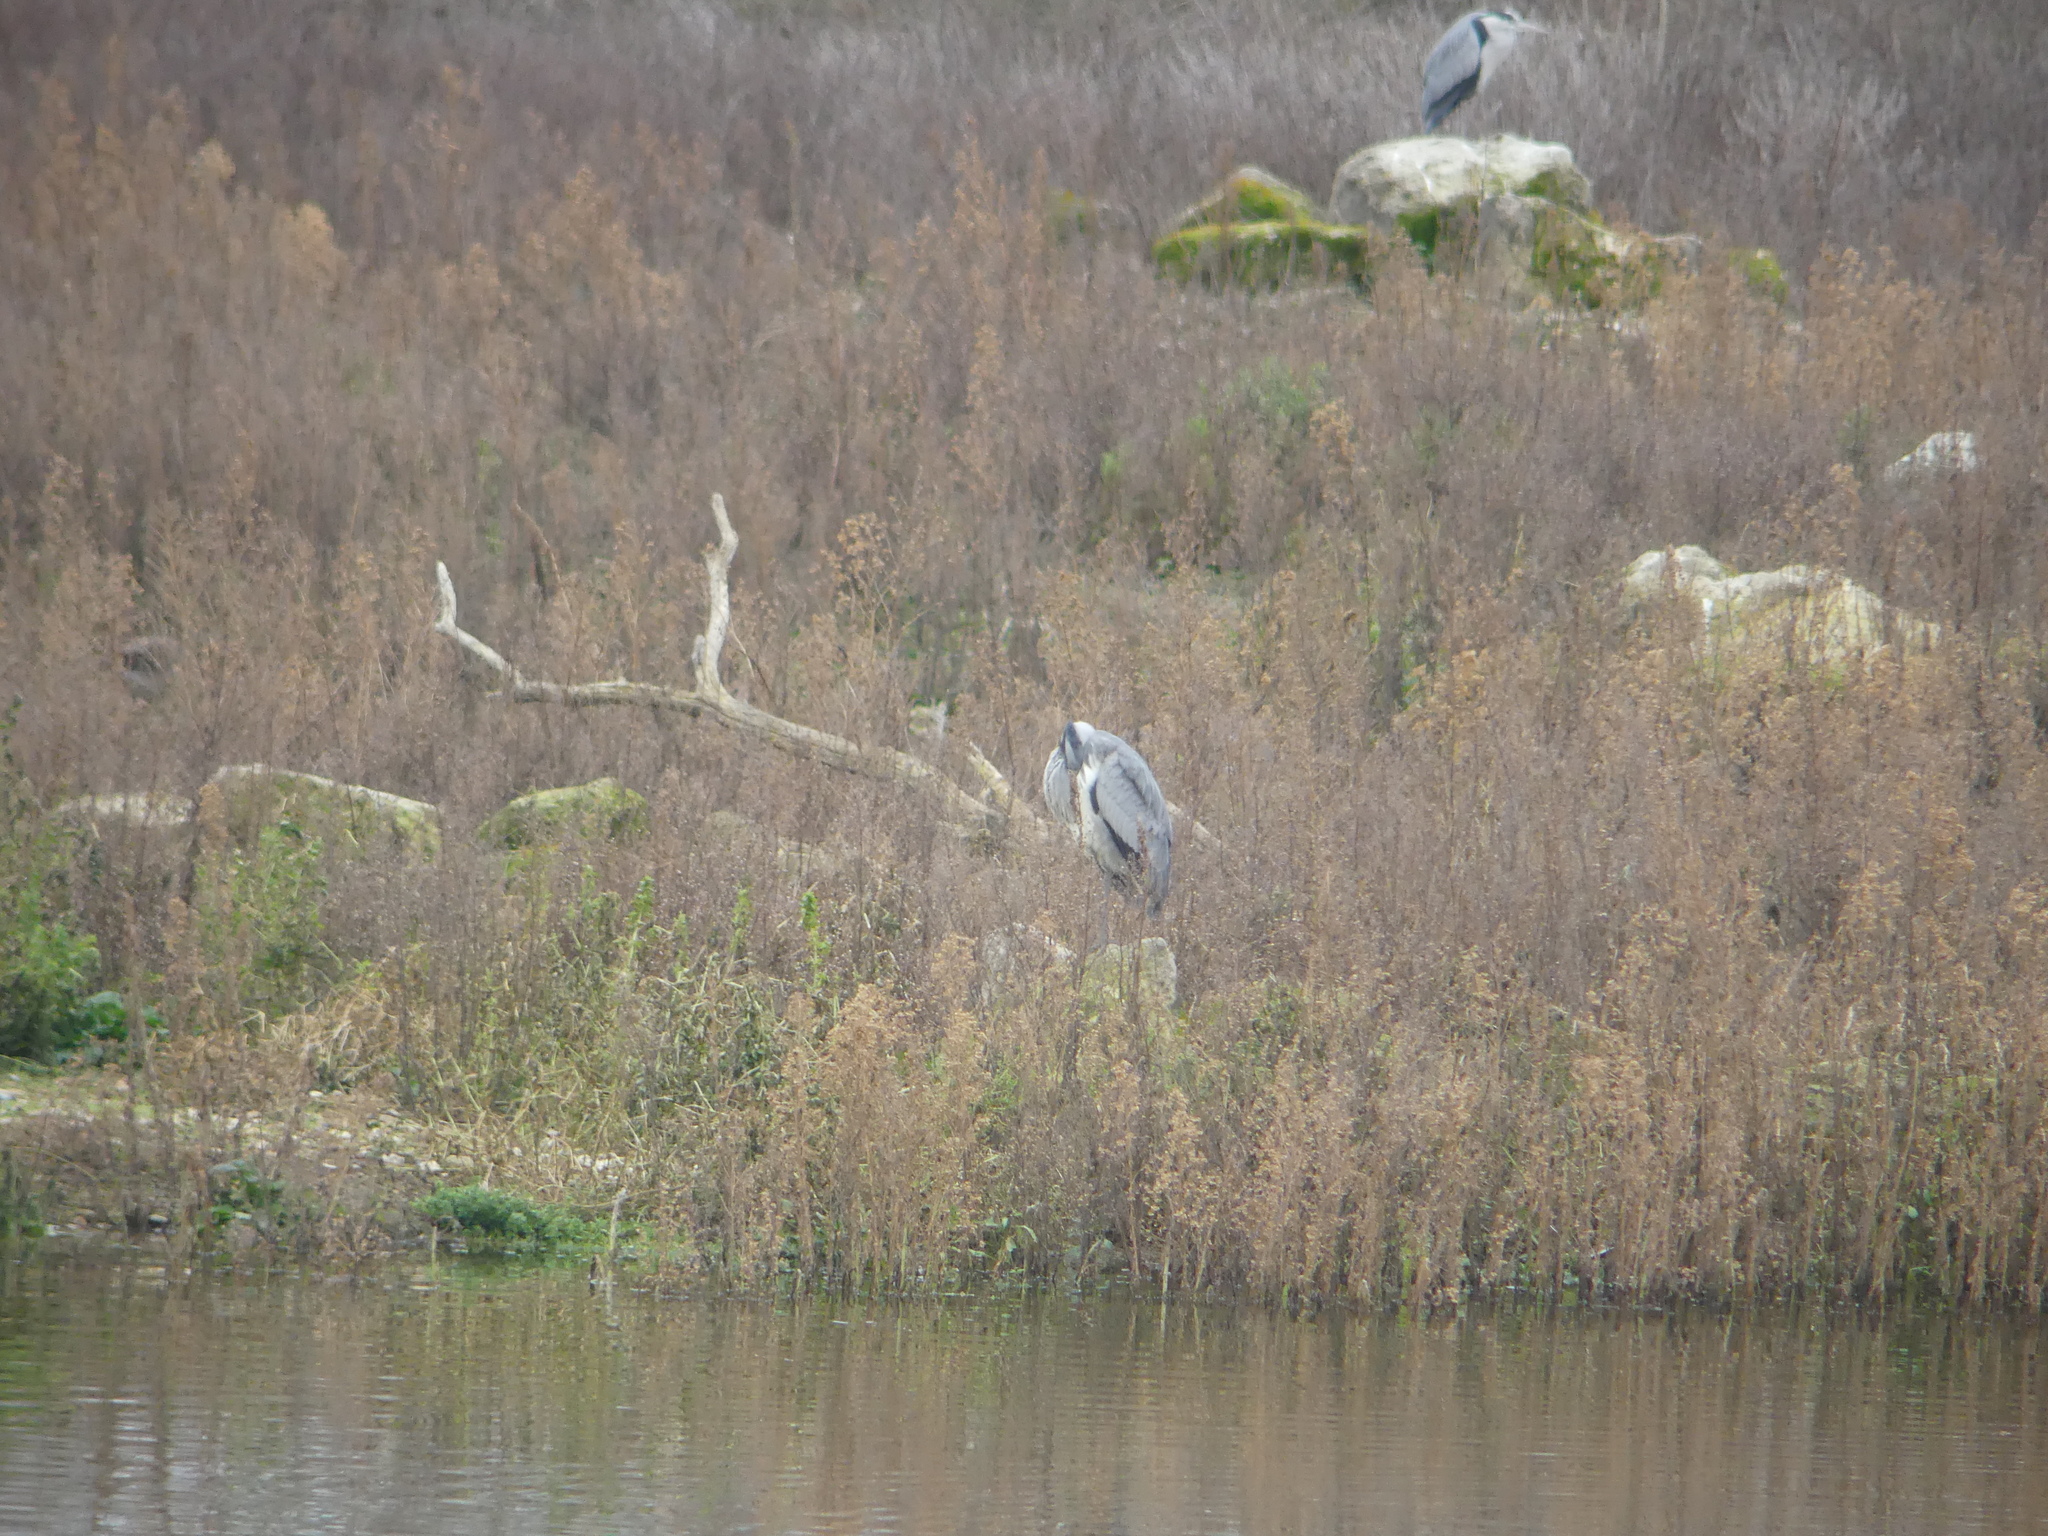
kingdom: Animalia
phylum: Chordata
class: Aves
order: Pelecaniformes
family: Ardeidae
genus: Ardea
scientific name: Ardea cinerea
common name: Grey heron
